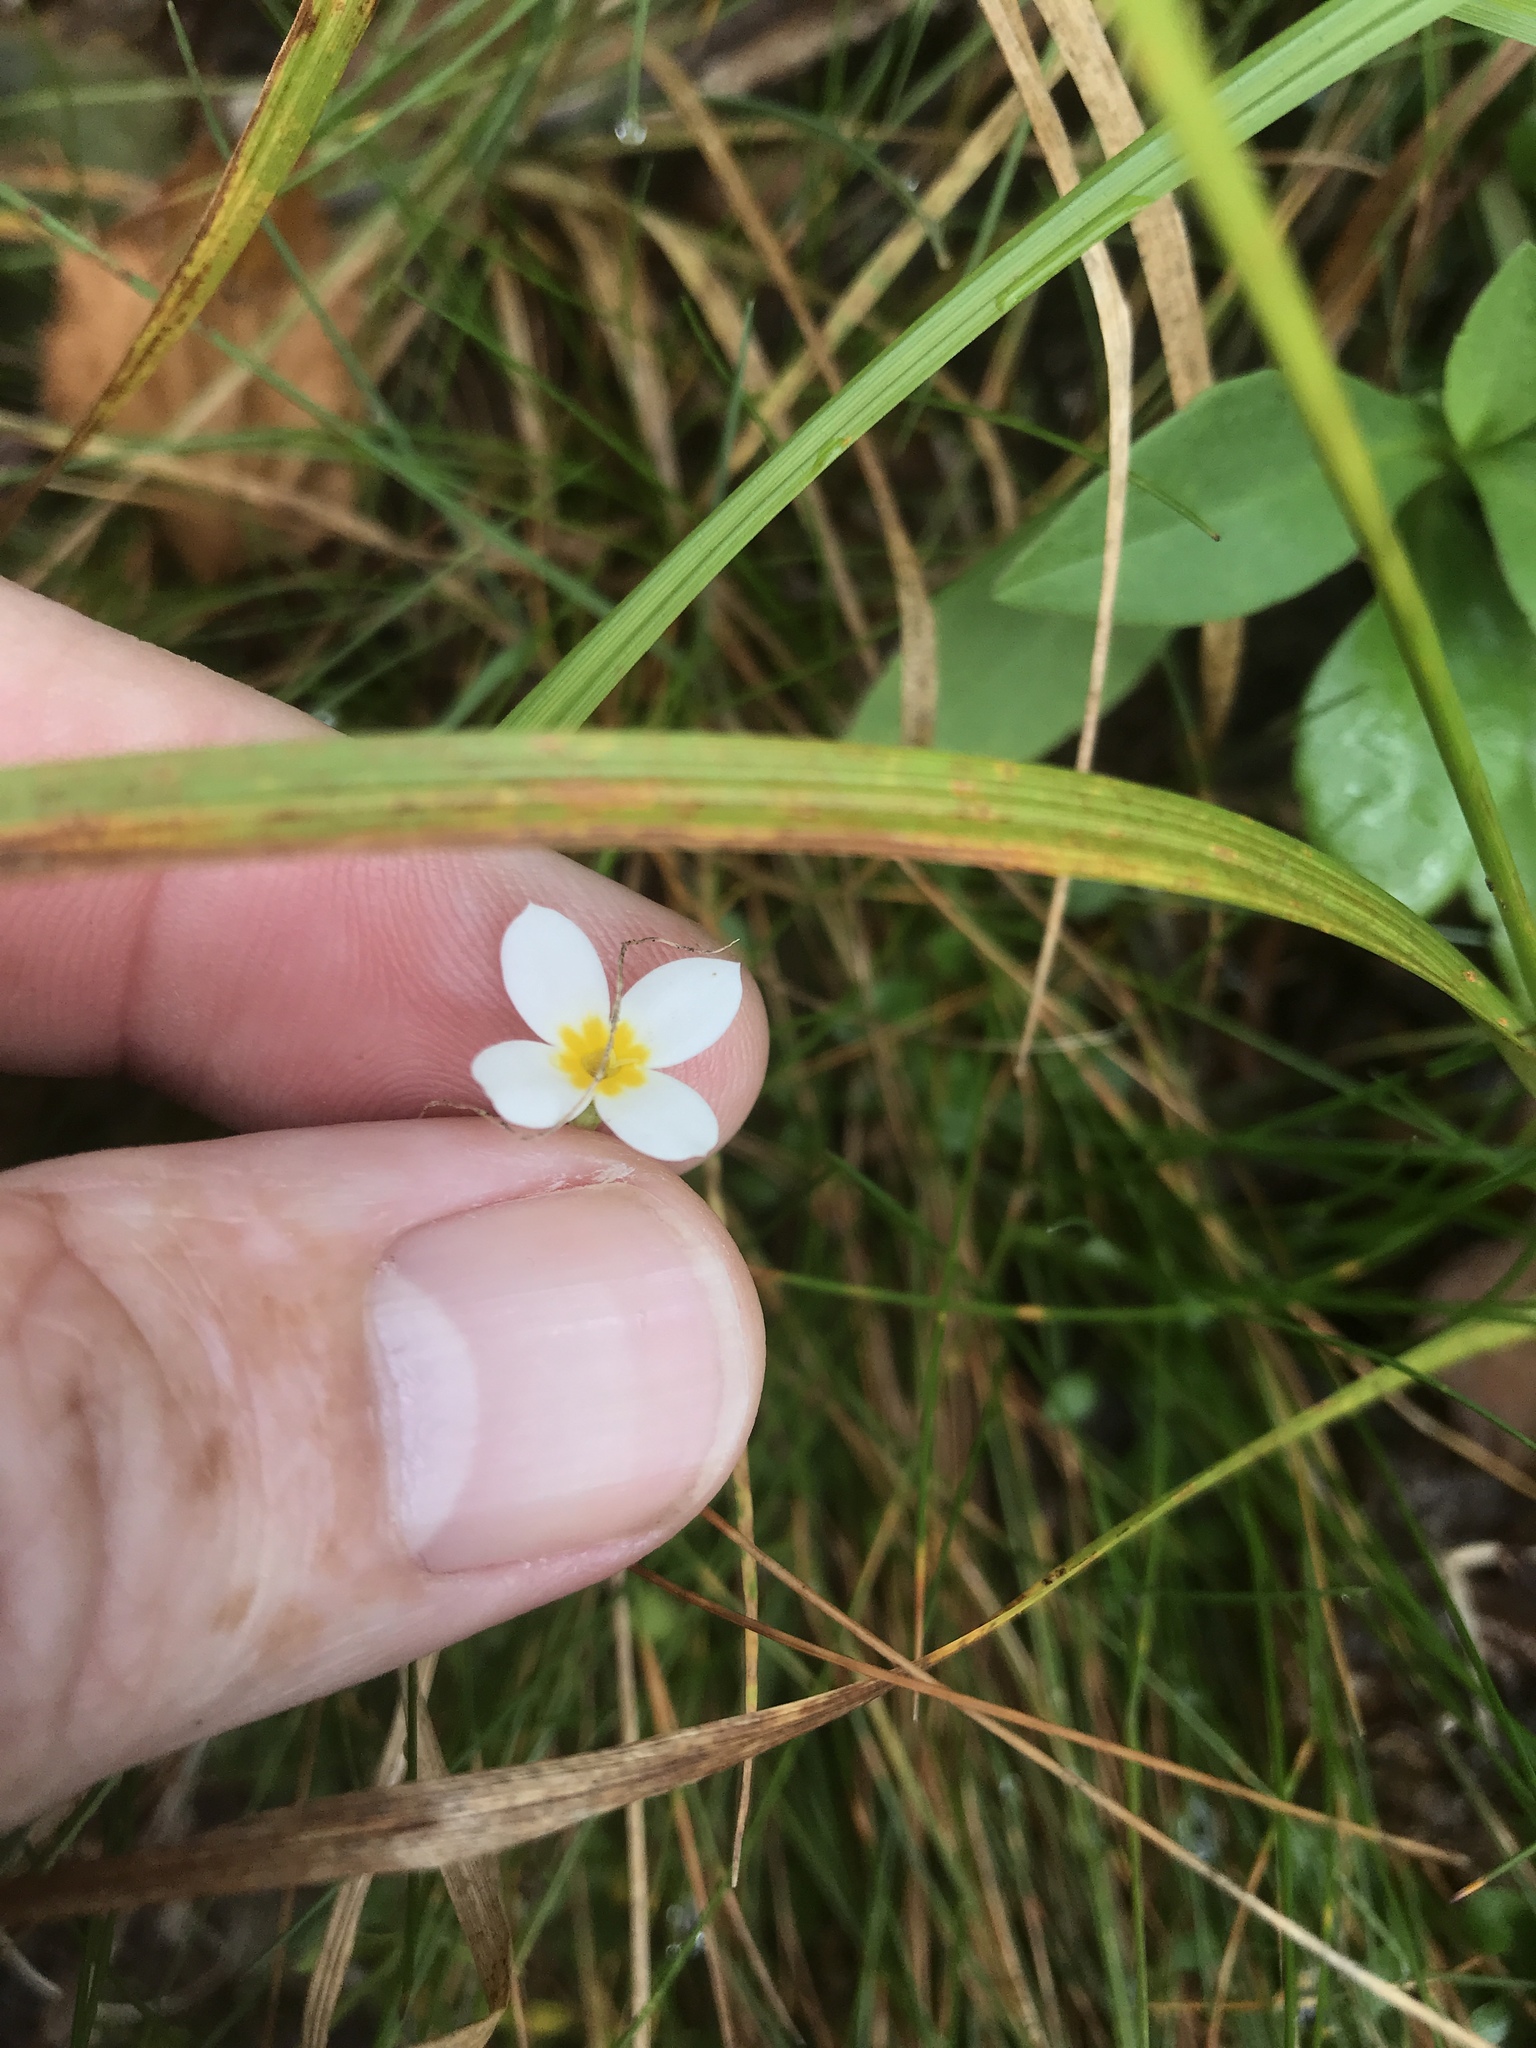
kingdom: Plantae
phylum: Tracheophyta
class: Magnoliopsida
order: Gentianales
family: Rubiaceae
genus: Houstonia
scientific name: Houstonia caerulea
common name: Bluets
